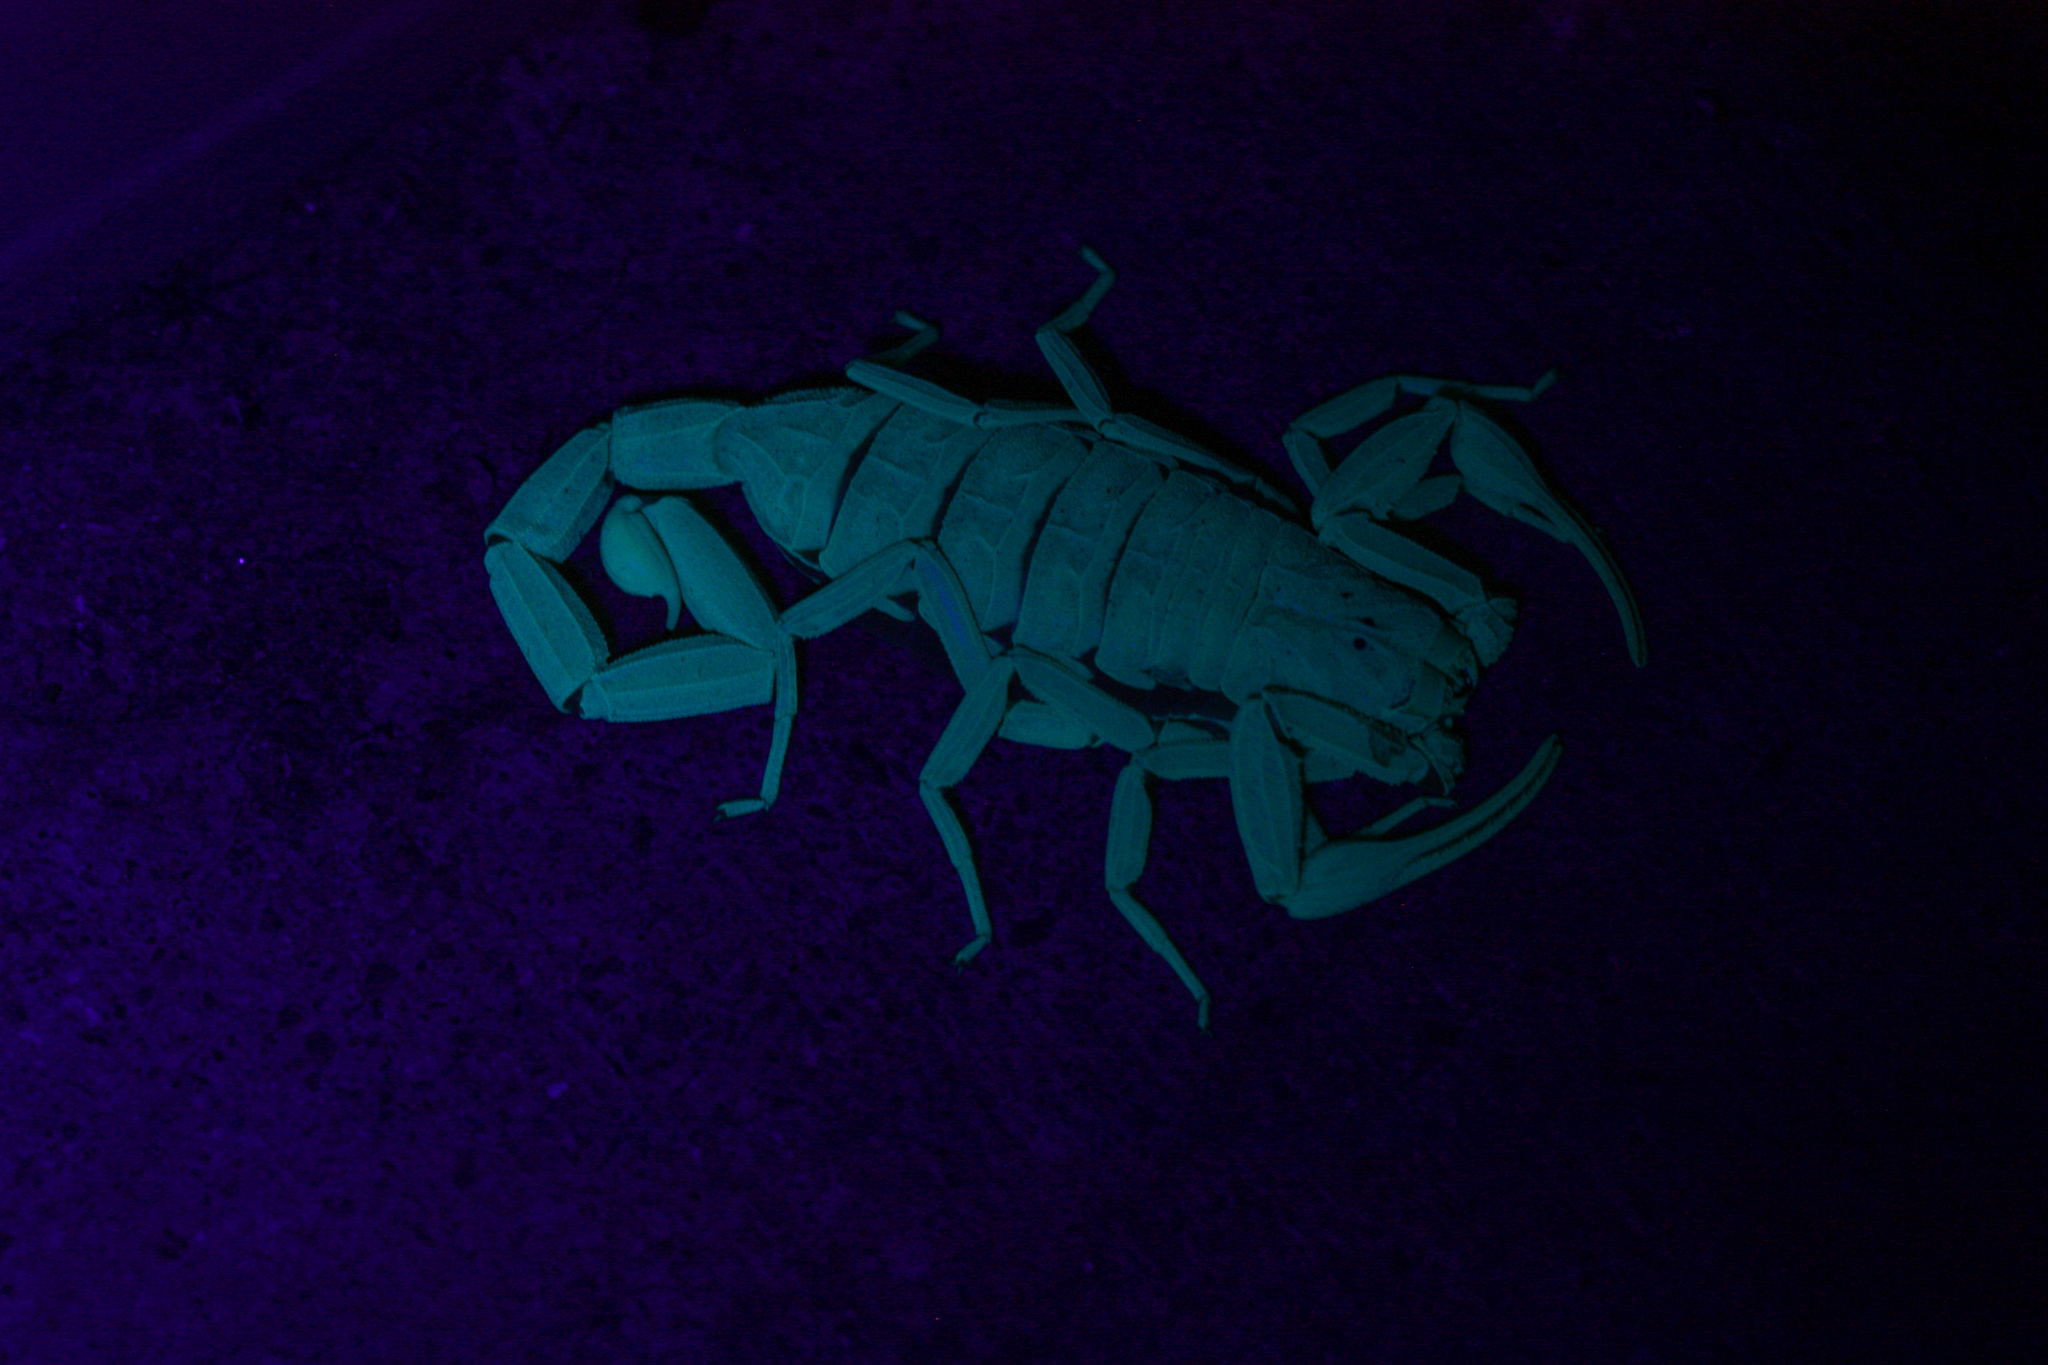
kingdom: Animalia
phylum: Arthropoda
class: Arachnida
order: Scorpiones
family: Buthidae
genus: Centruroides
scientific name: Centruroides sculpturatus
